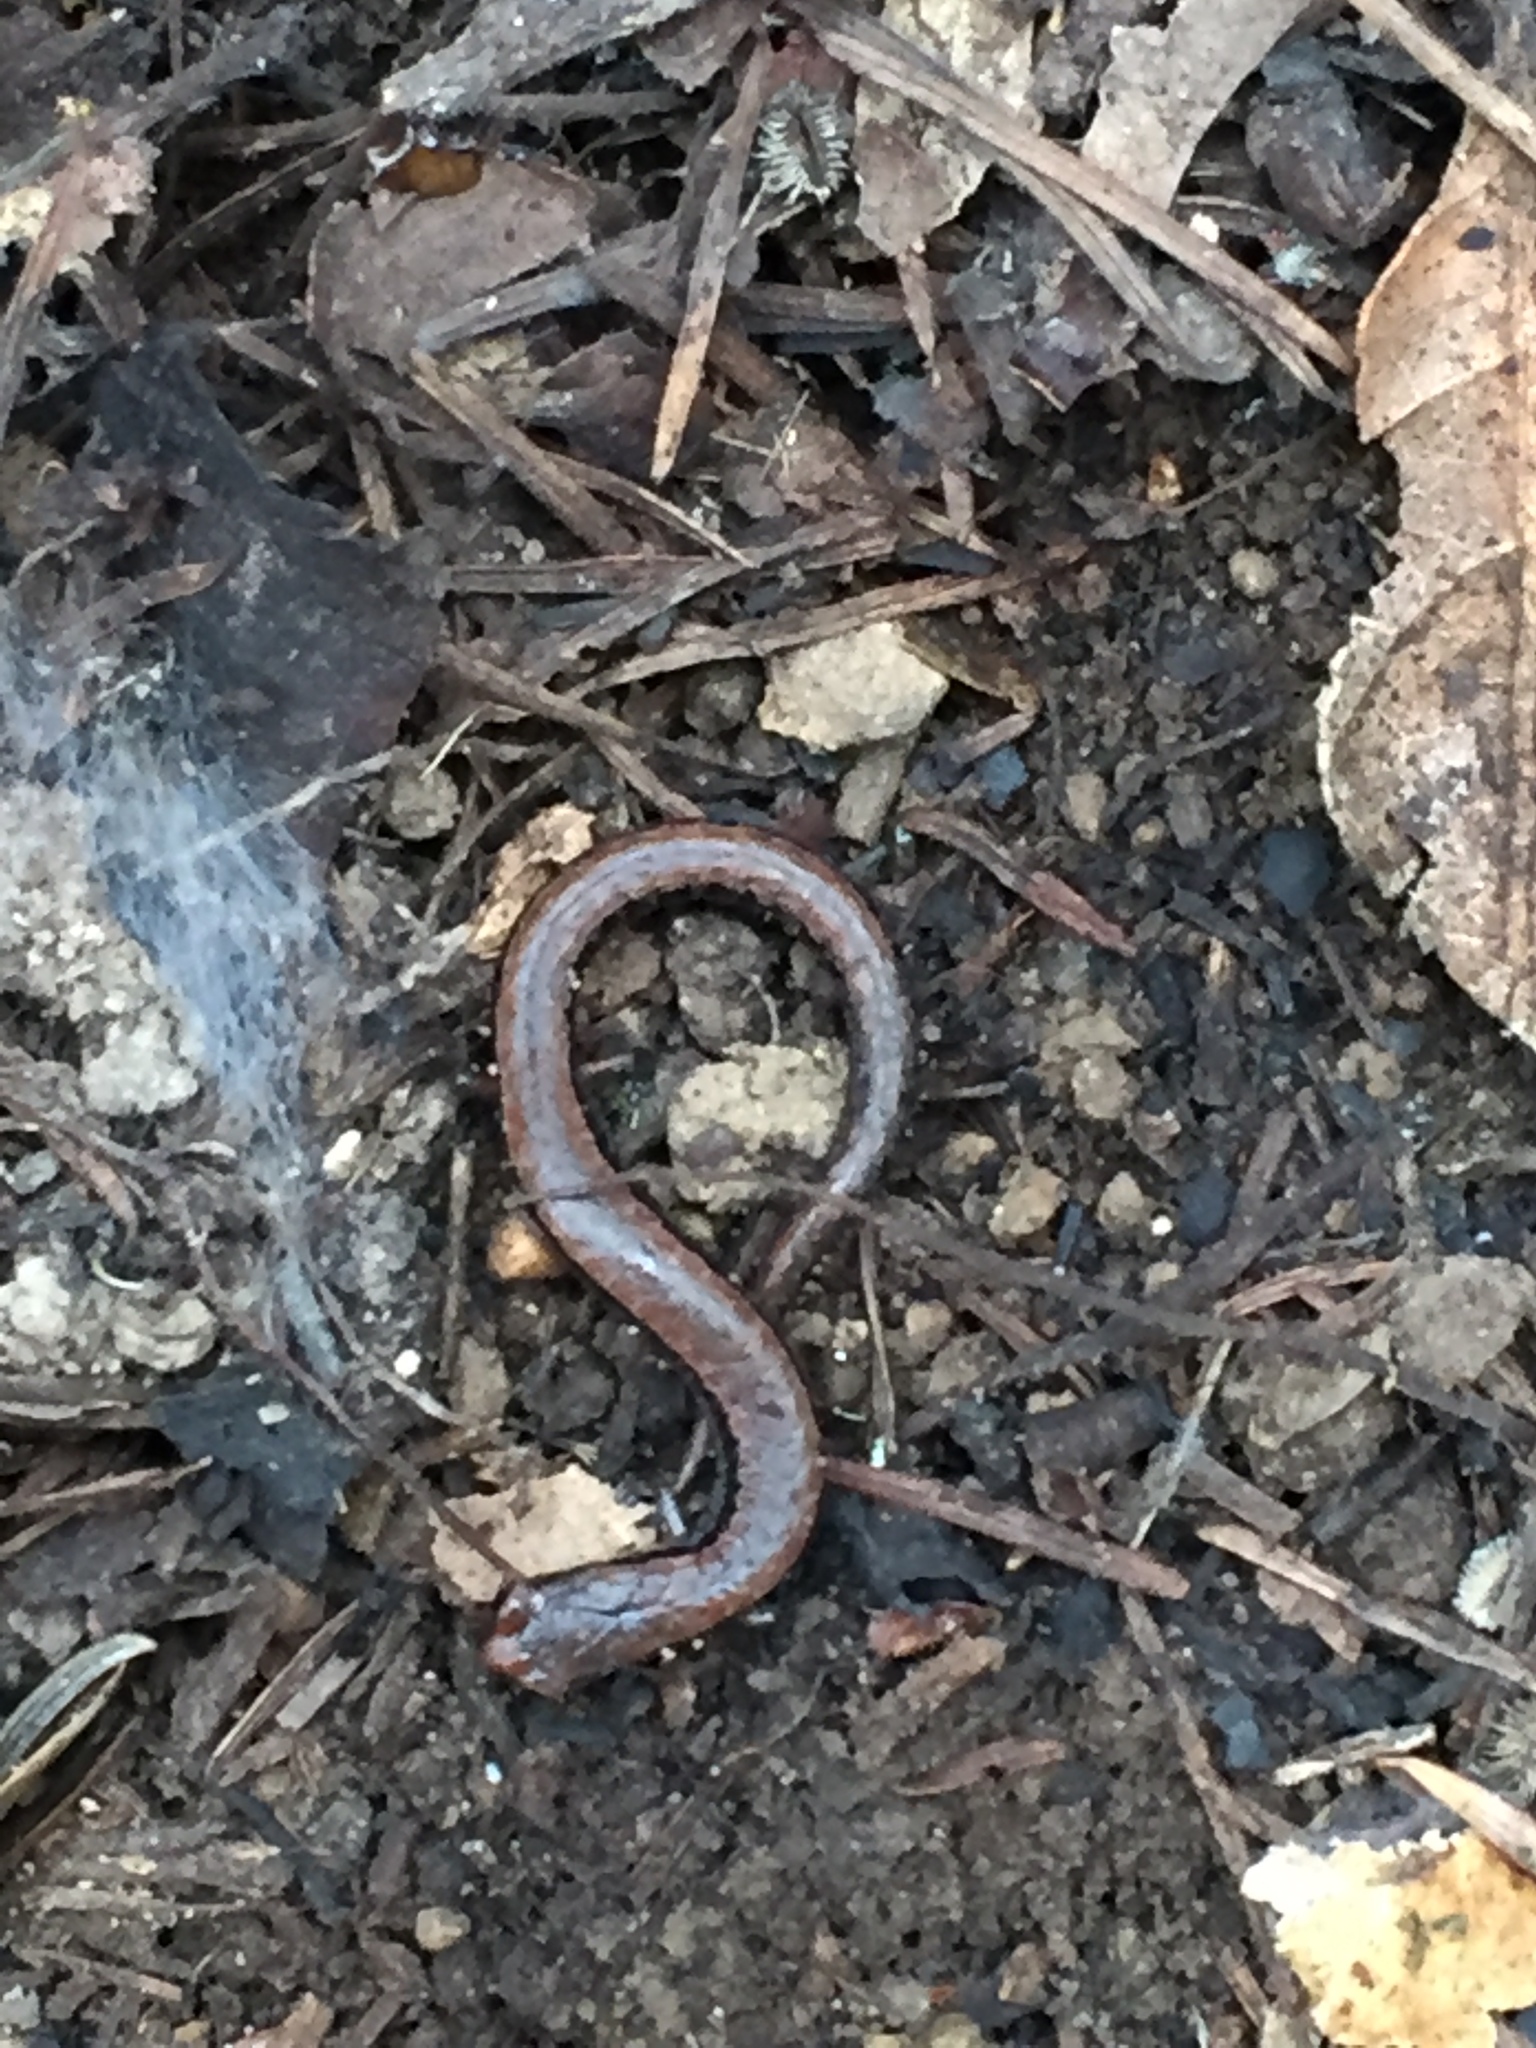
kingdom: Animalia
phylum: Chordata
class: Amphibia
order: Caudata
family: Plethodontidae
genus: Batrachoseps
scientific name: Batrachoseps attenuatus
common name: California slender salamander
